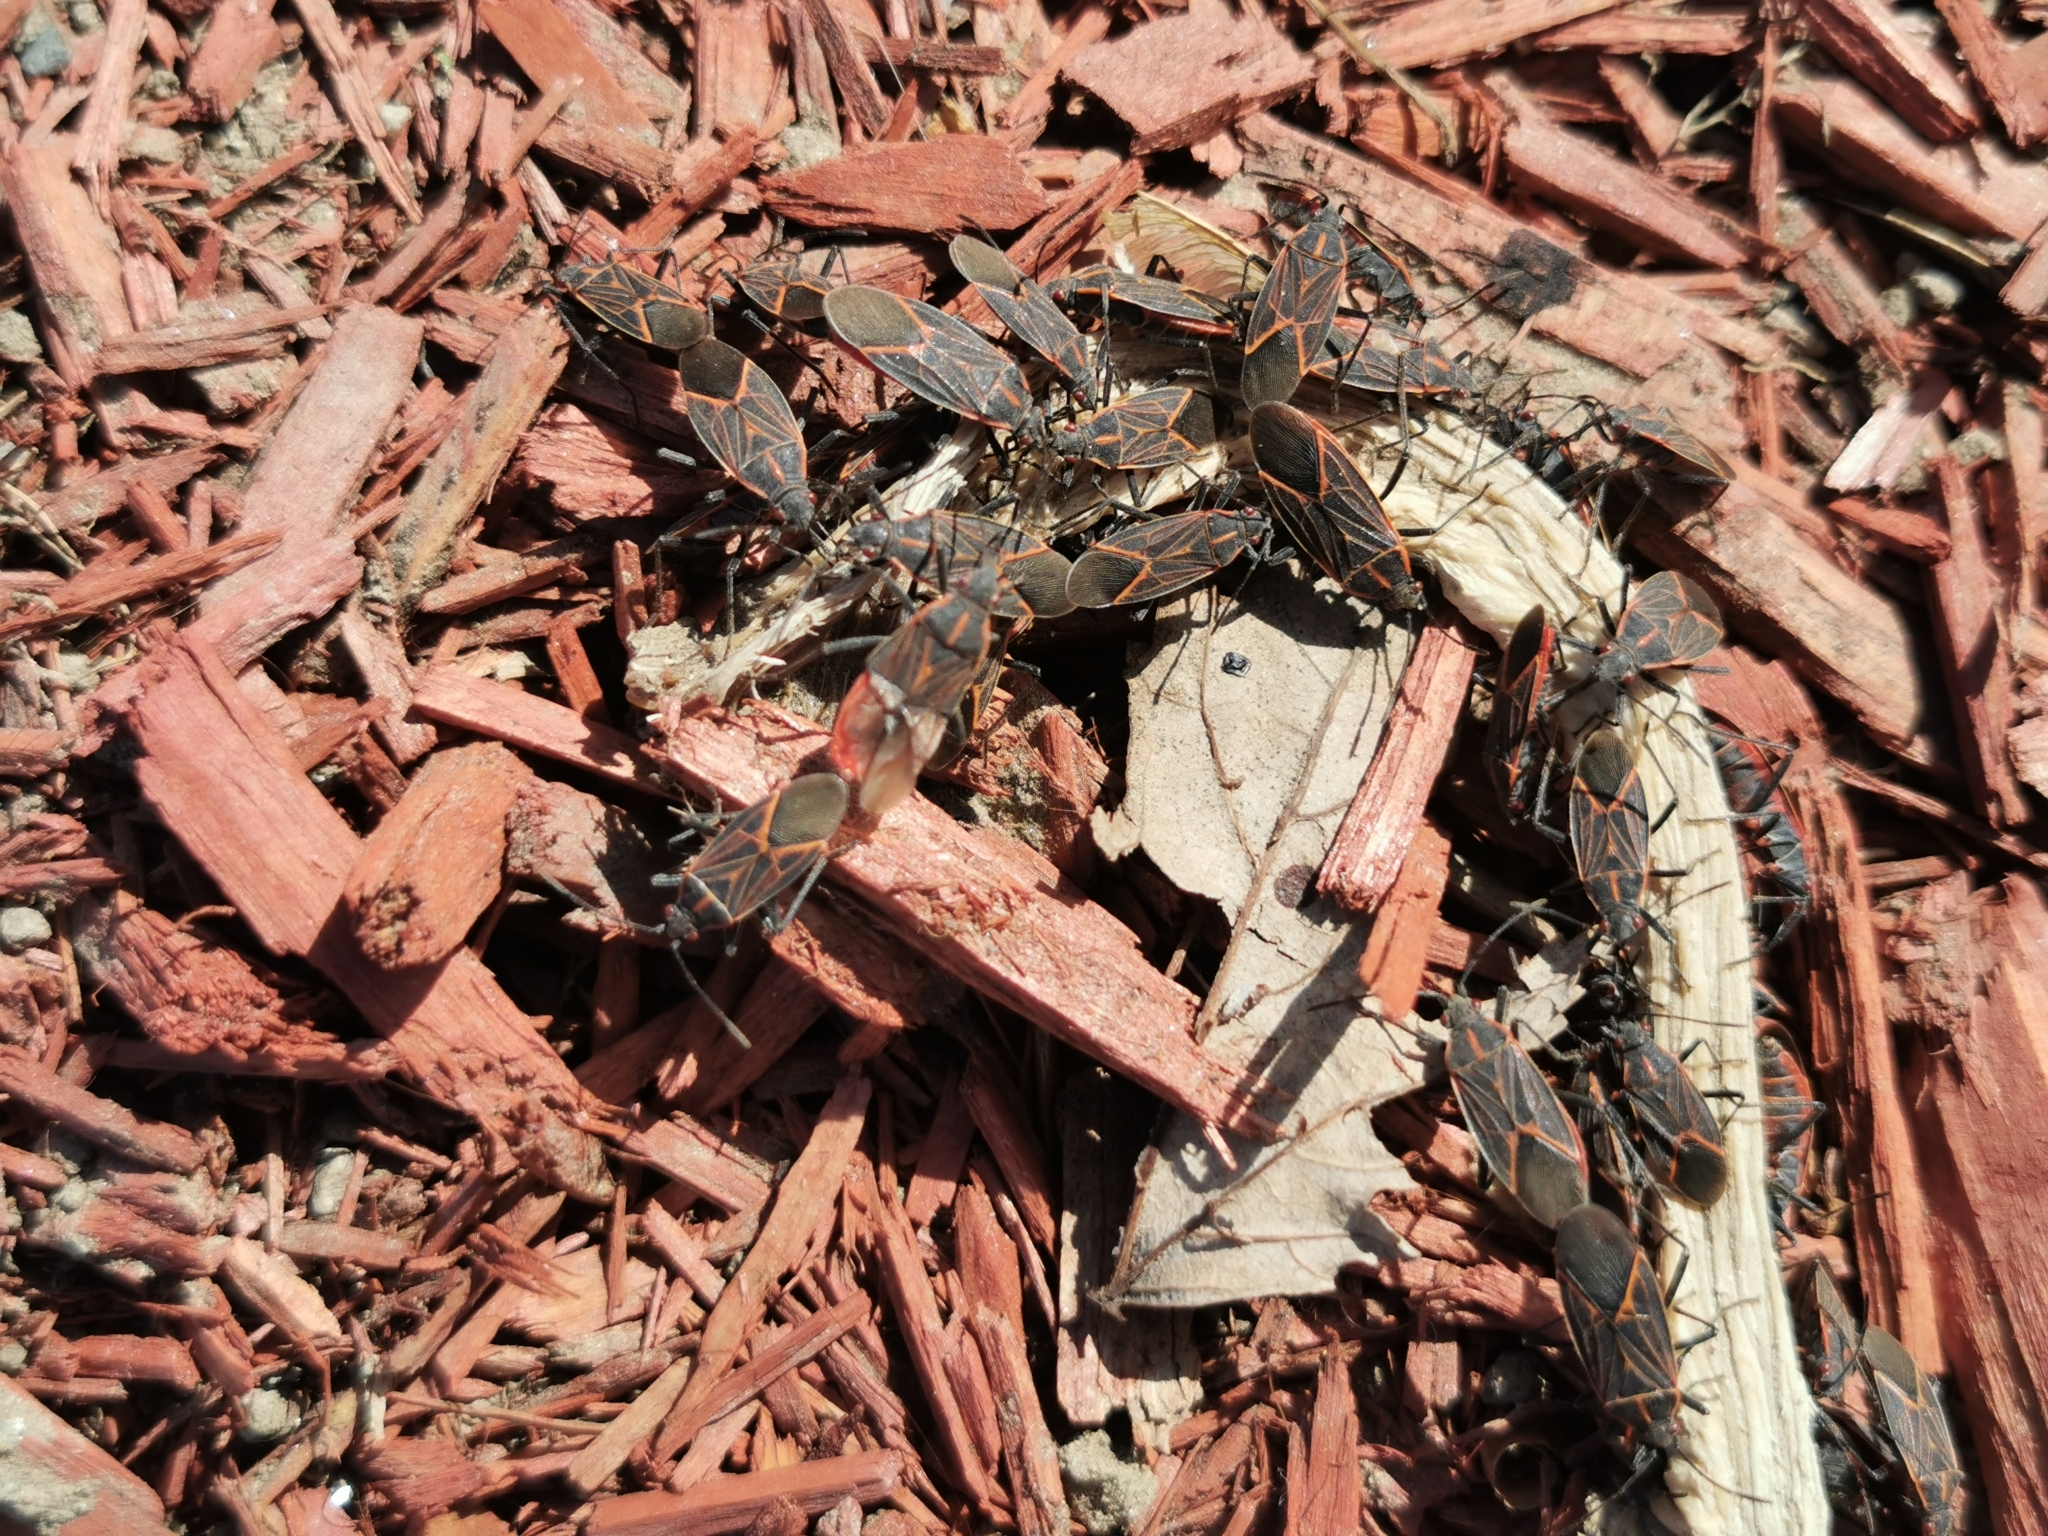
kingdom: Animalia
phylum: Arthropoda
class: Insecta
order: Hemiptera
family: Rhopalidae
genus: Boisea
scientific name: Boisea rubrolineata
